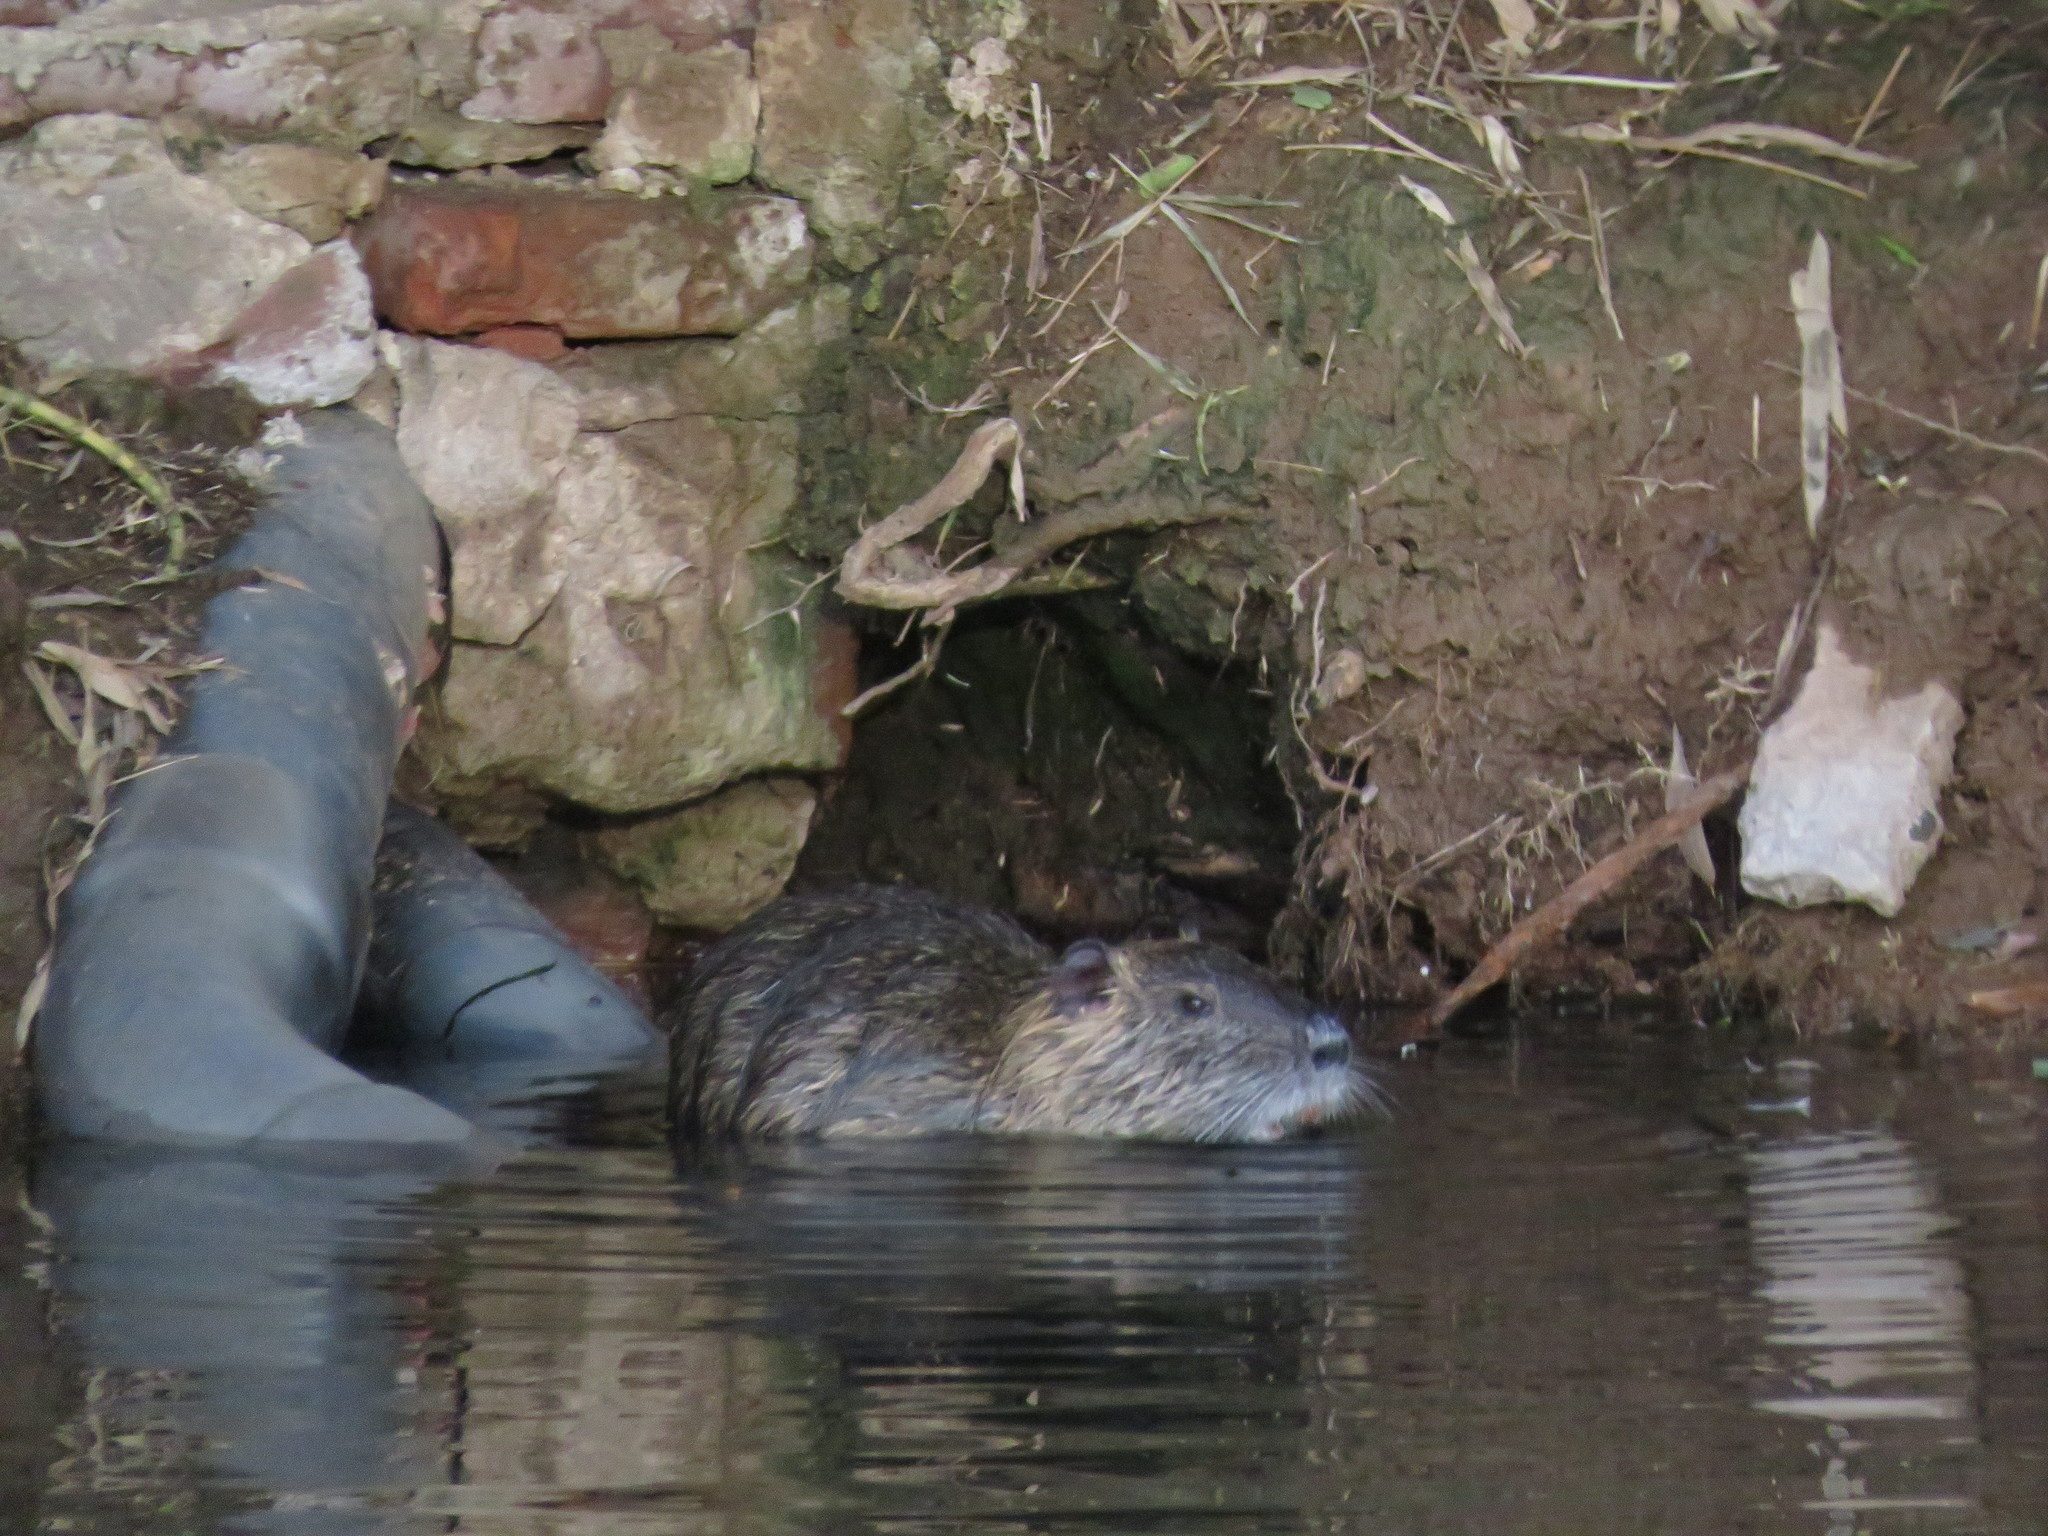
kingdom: Animalia
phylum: Chordata
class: Mammalia
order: Rodentia
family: Myocastoridae
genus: Myocastor
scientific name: Myocastor coypus
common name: Coypu
